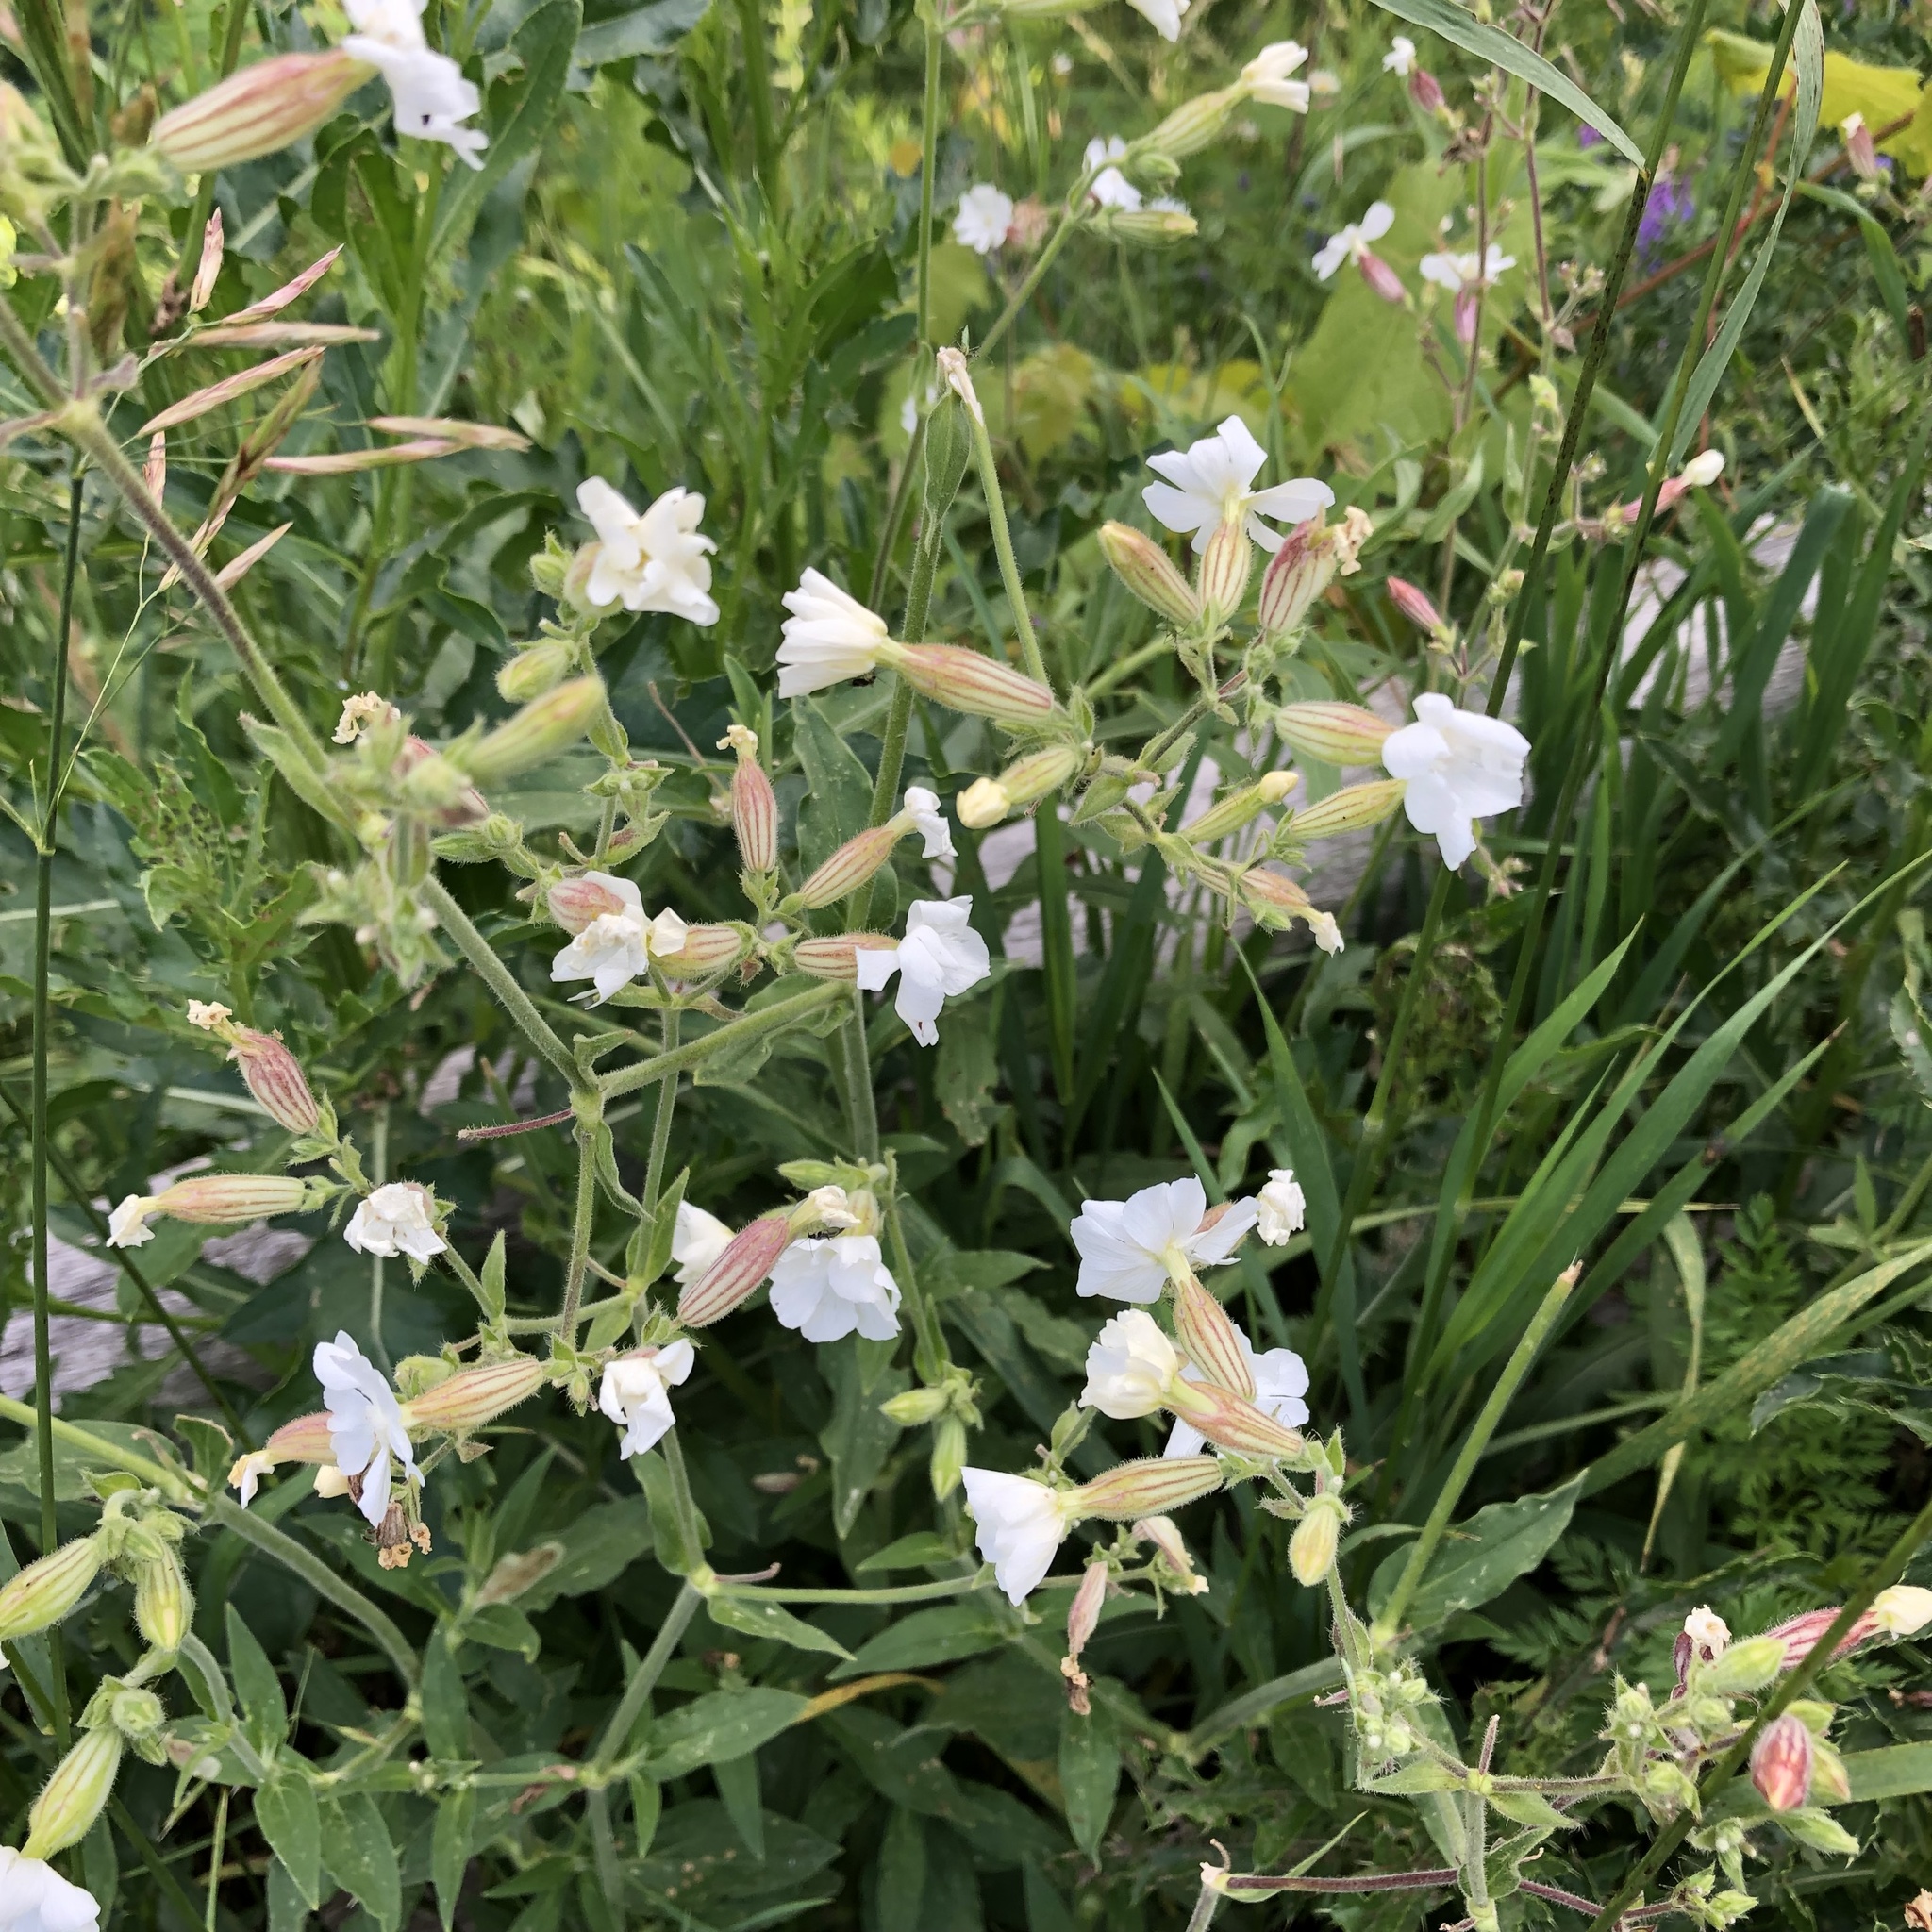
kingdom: Plantae
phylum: Tracheophyta
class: Magnoliopsida
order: Caryophyllales
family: Caryophyllaceae
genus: Silene
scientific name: Silene latifolia
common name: White campion
